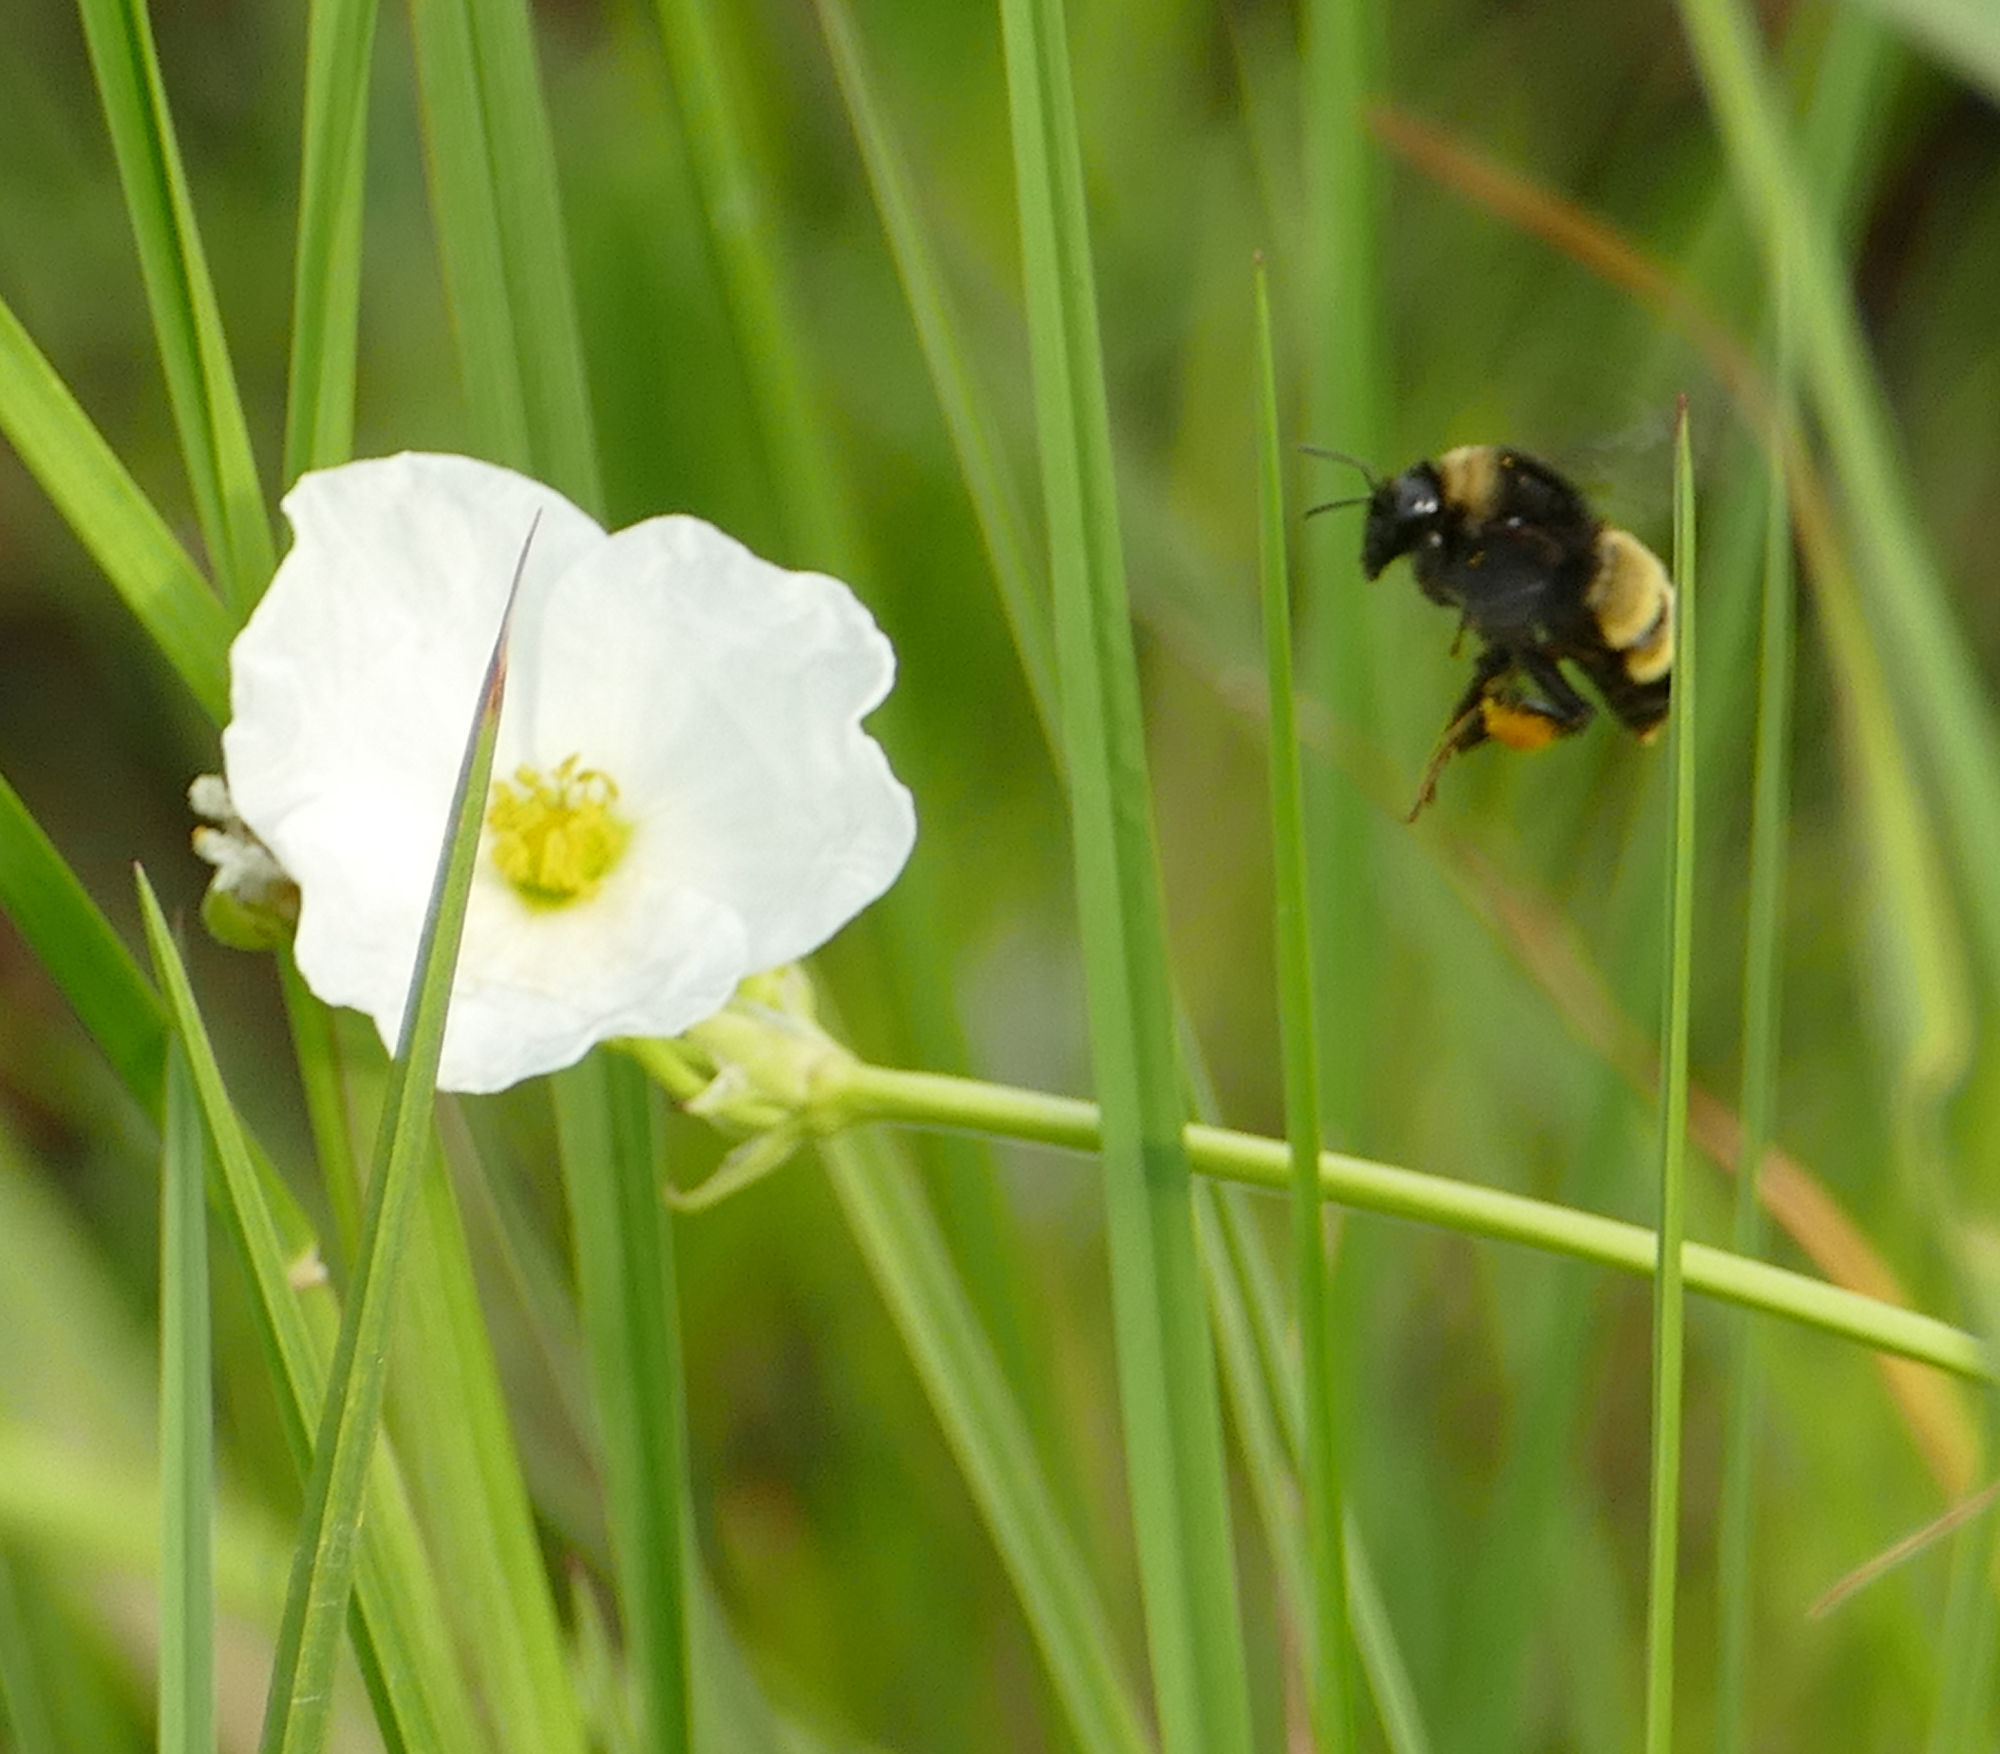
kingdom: Animalia
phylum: Arthropoda
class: Insecta
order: Hymenoptera
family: Apidae
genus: Bombus
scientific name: Bombus pensylvanicus
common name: Bumble bee
